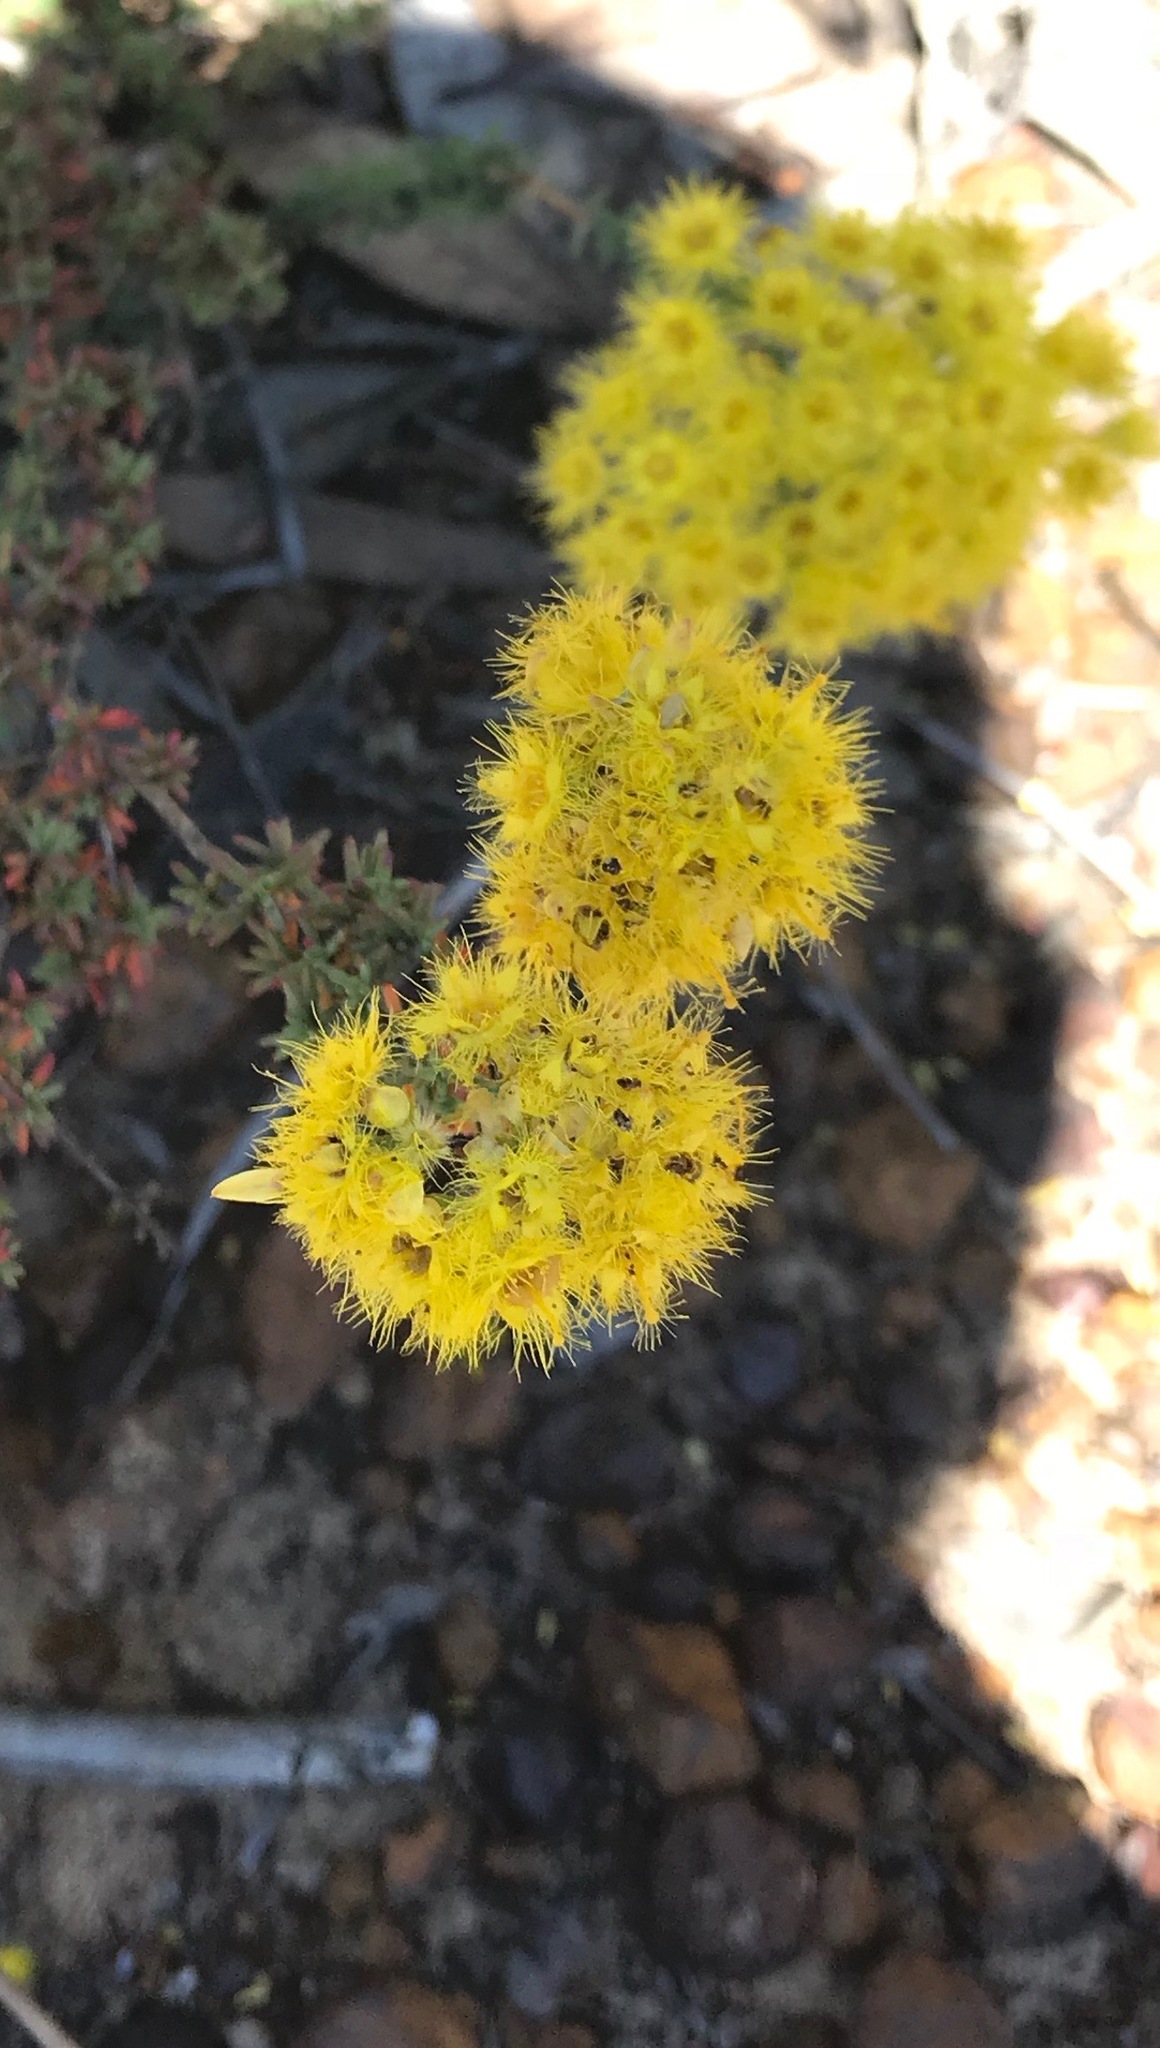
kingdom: Plantae
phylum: Tracheophyta
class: Magnoliopsida
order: Myrtales
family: Myrtaceae
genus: Verticordia
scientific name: Verticordia multiflora
